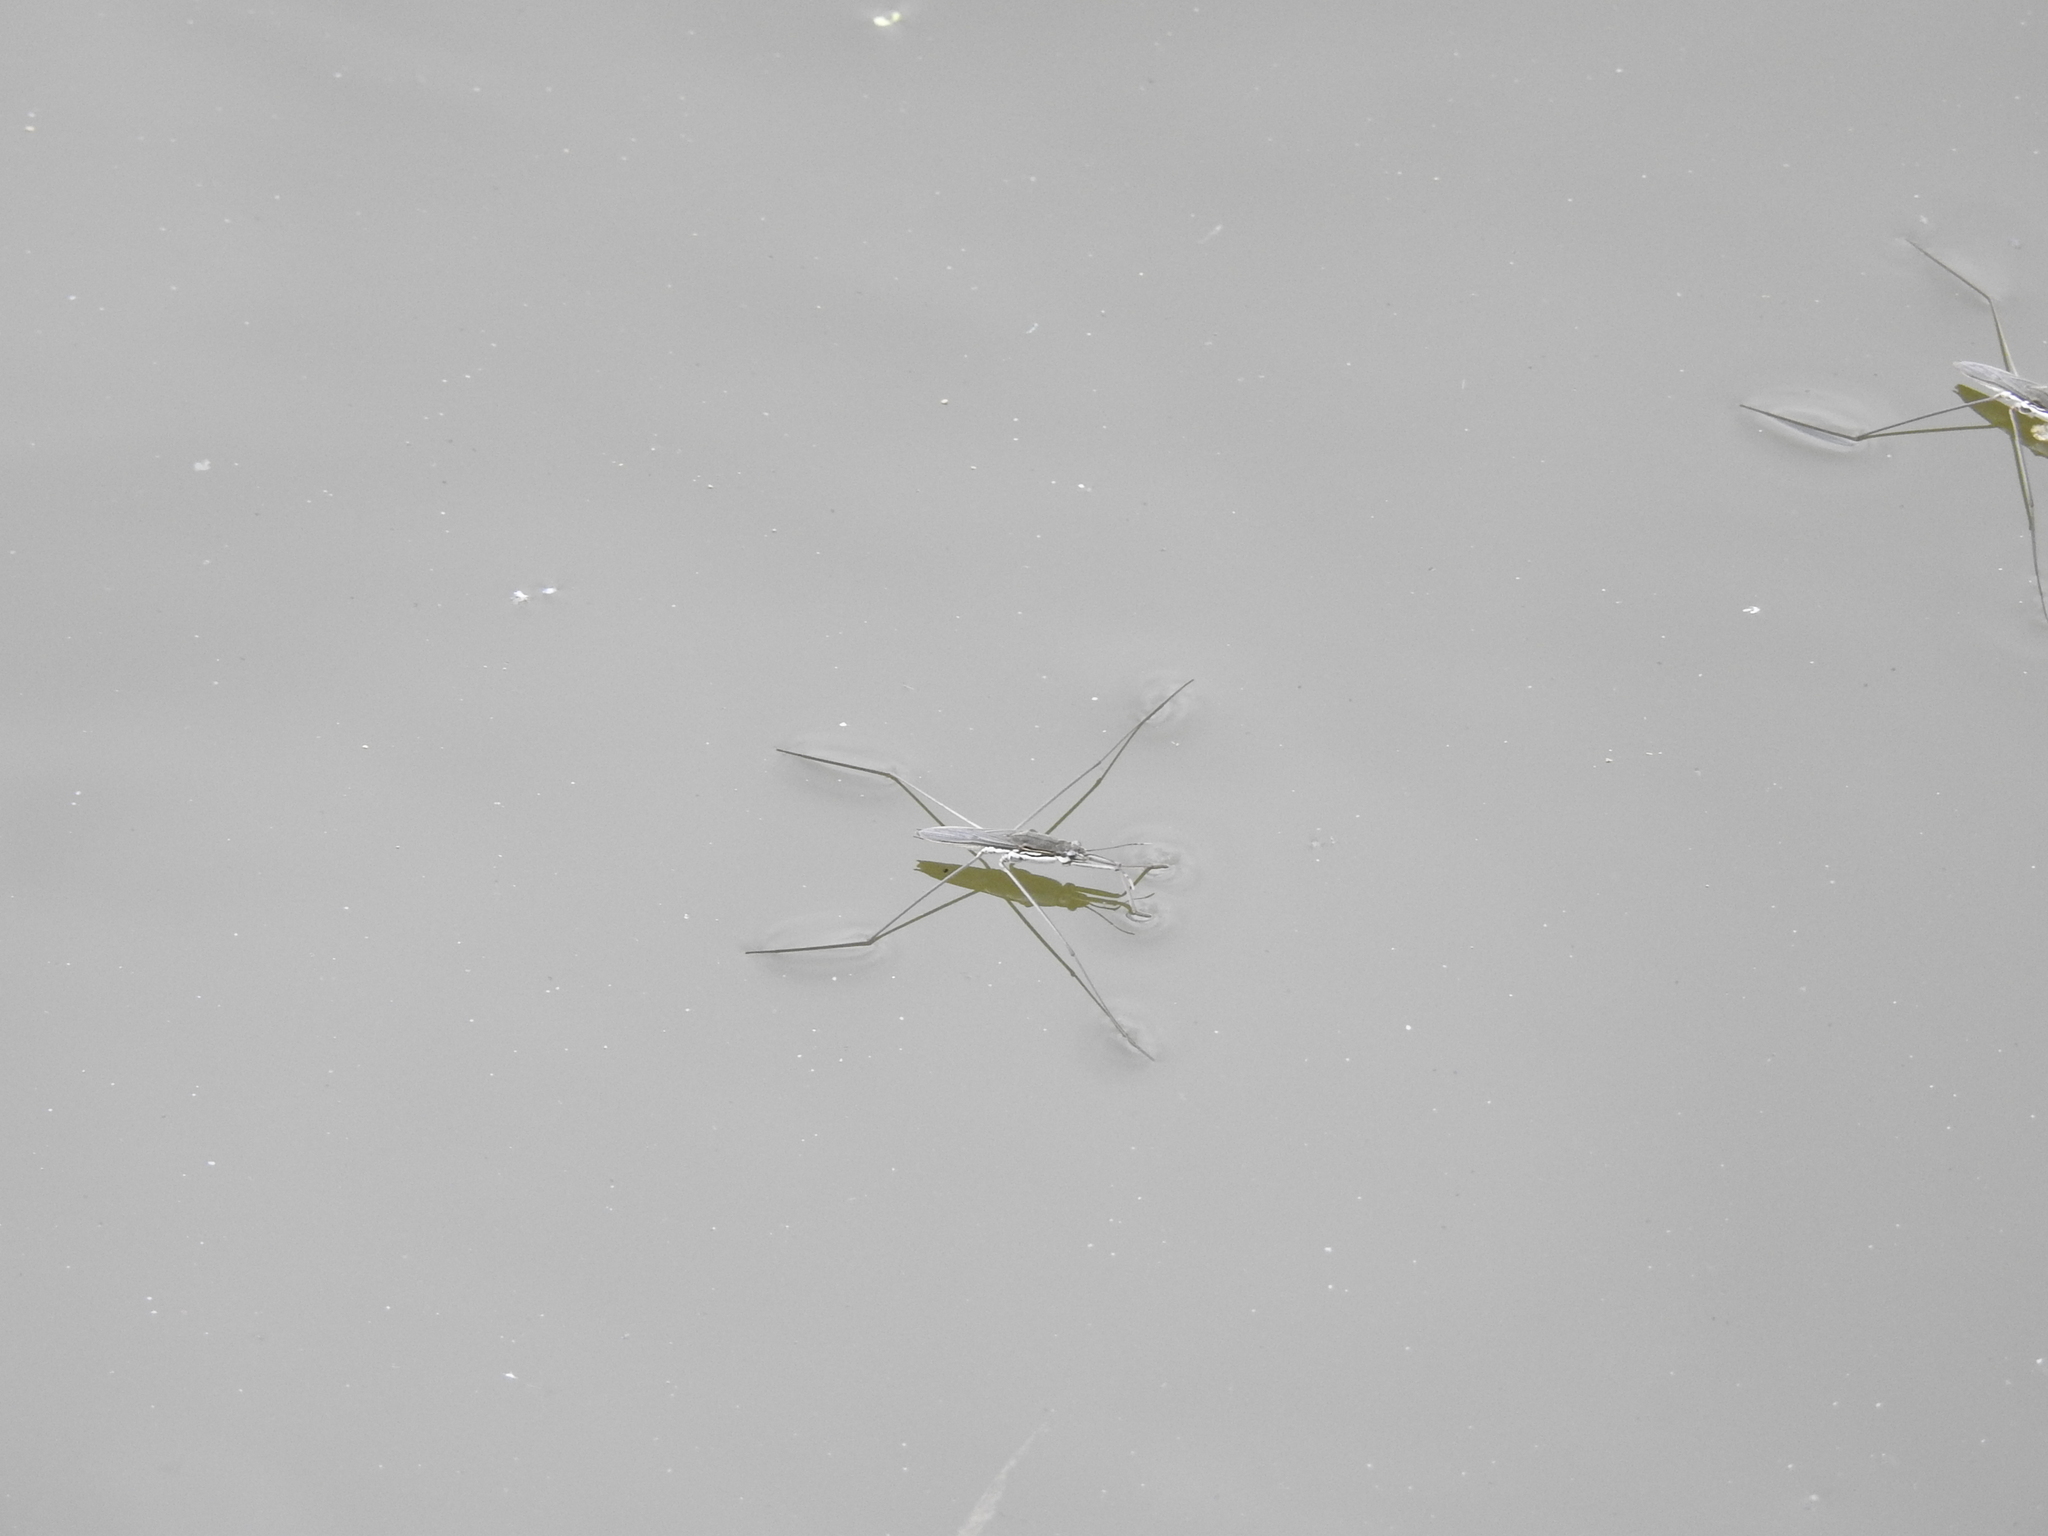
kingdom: Animalia
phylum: Arthropoda
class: Insecta
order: Hemiptera
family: Gerridae
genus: Aquarius
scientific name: Aquarius paludum
